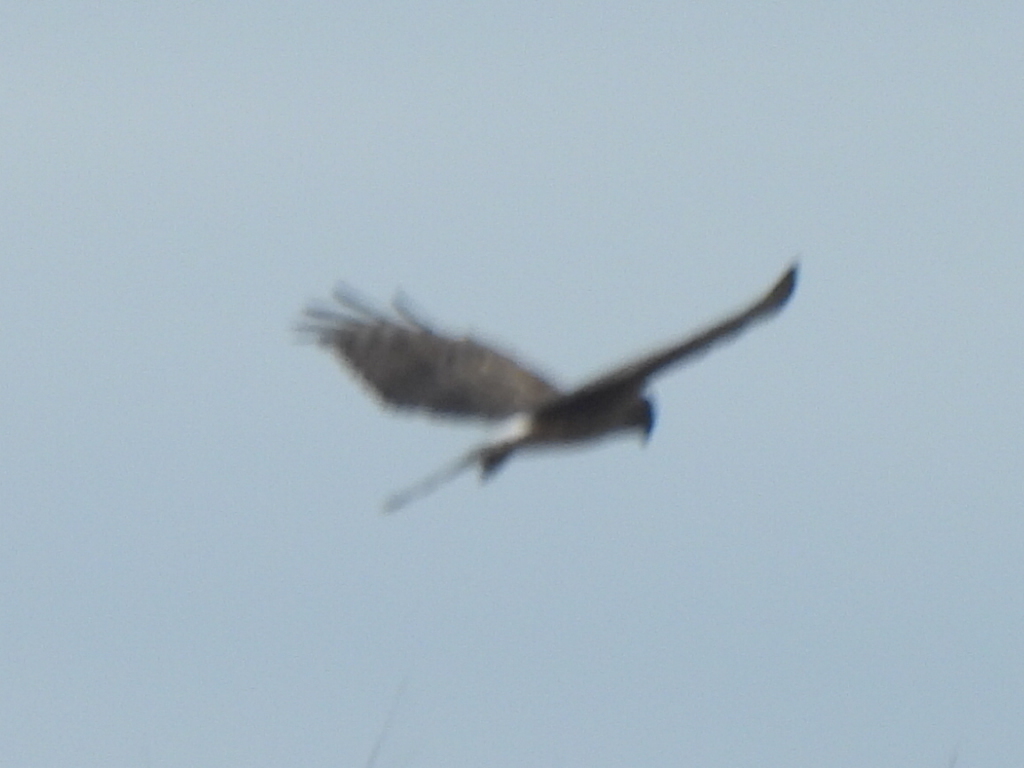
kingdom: Animalia
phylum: Chordata
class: Aves
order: Accipitriformes
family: Accipitridae
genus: Circus
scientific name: Circus cyaneus
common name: Hen harrier
